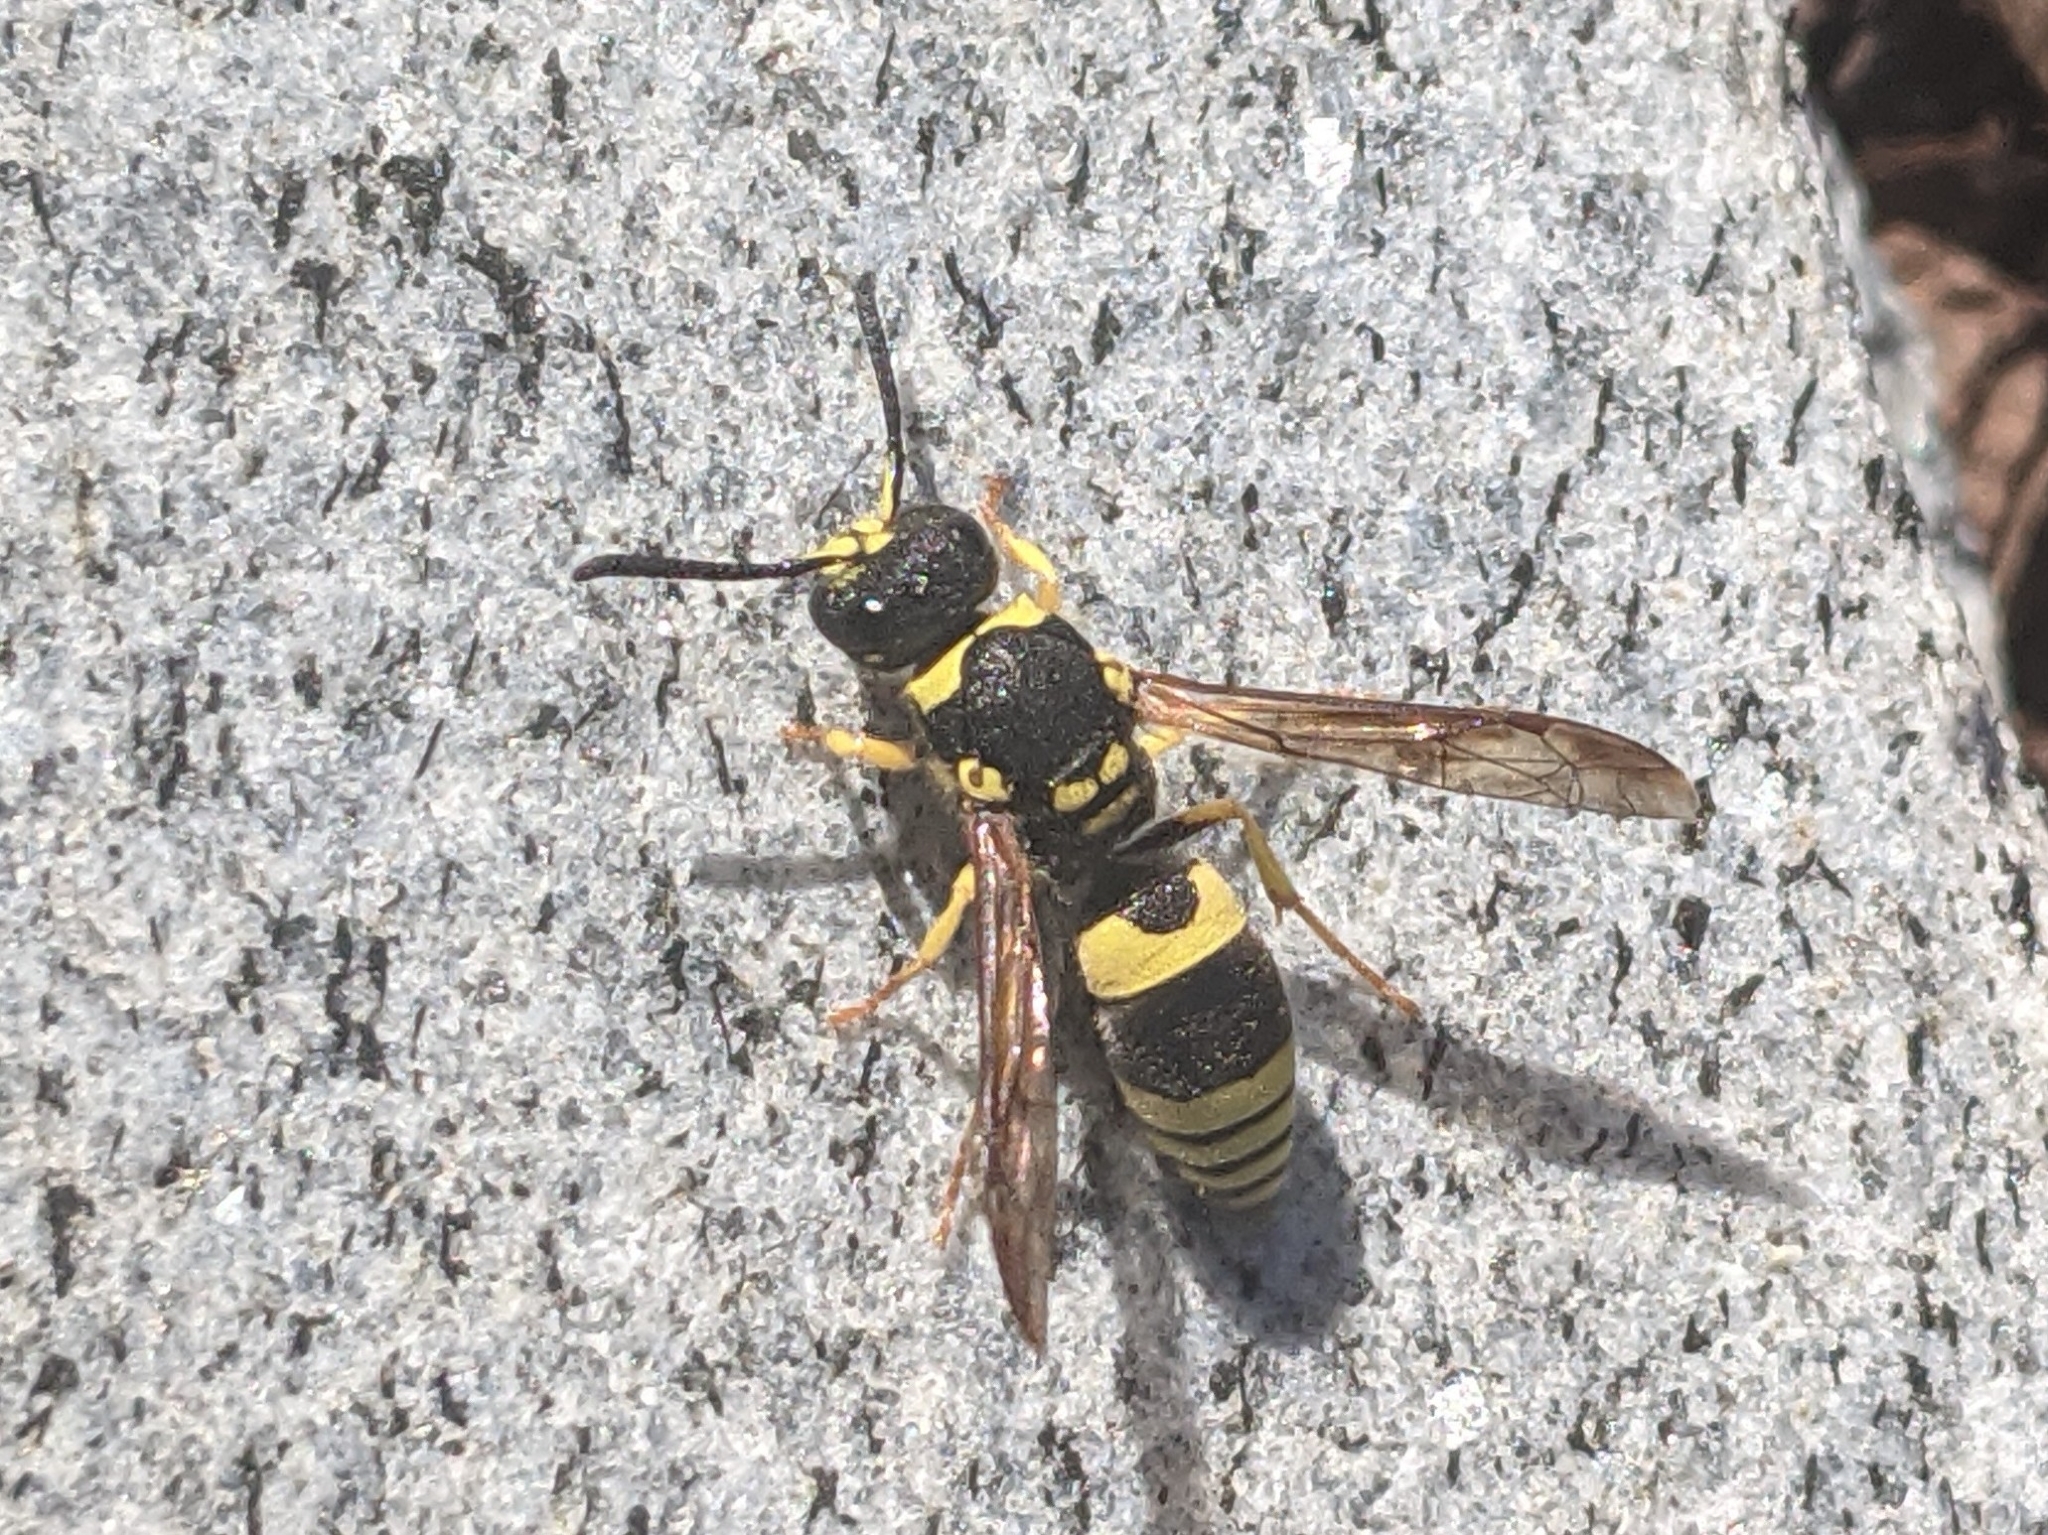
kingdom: Animalia
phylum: Arthropoda
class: Insecta
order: Hymenoptera
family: Vespidae
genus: Ancistrocerus
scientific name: Ancistrocerus gazella
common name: European tube wasp
